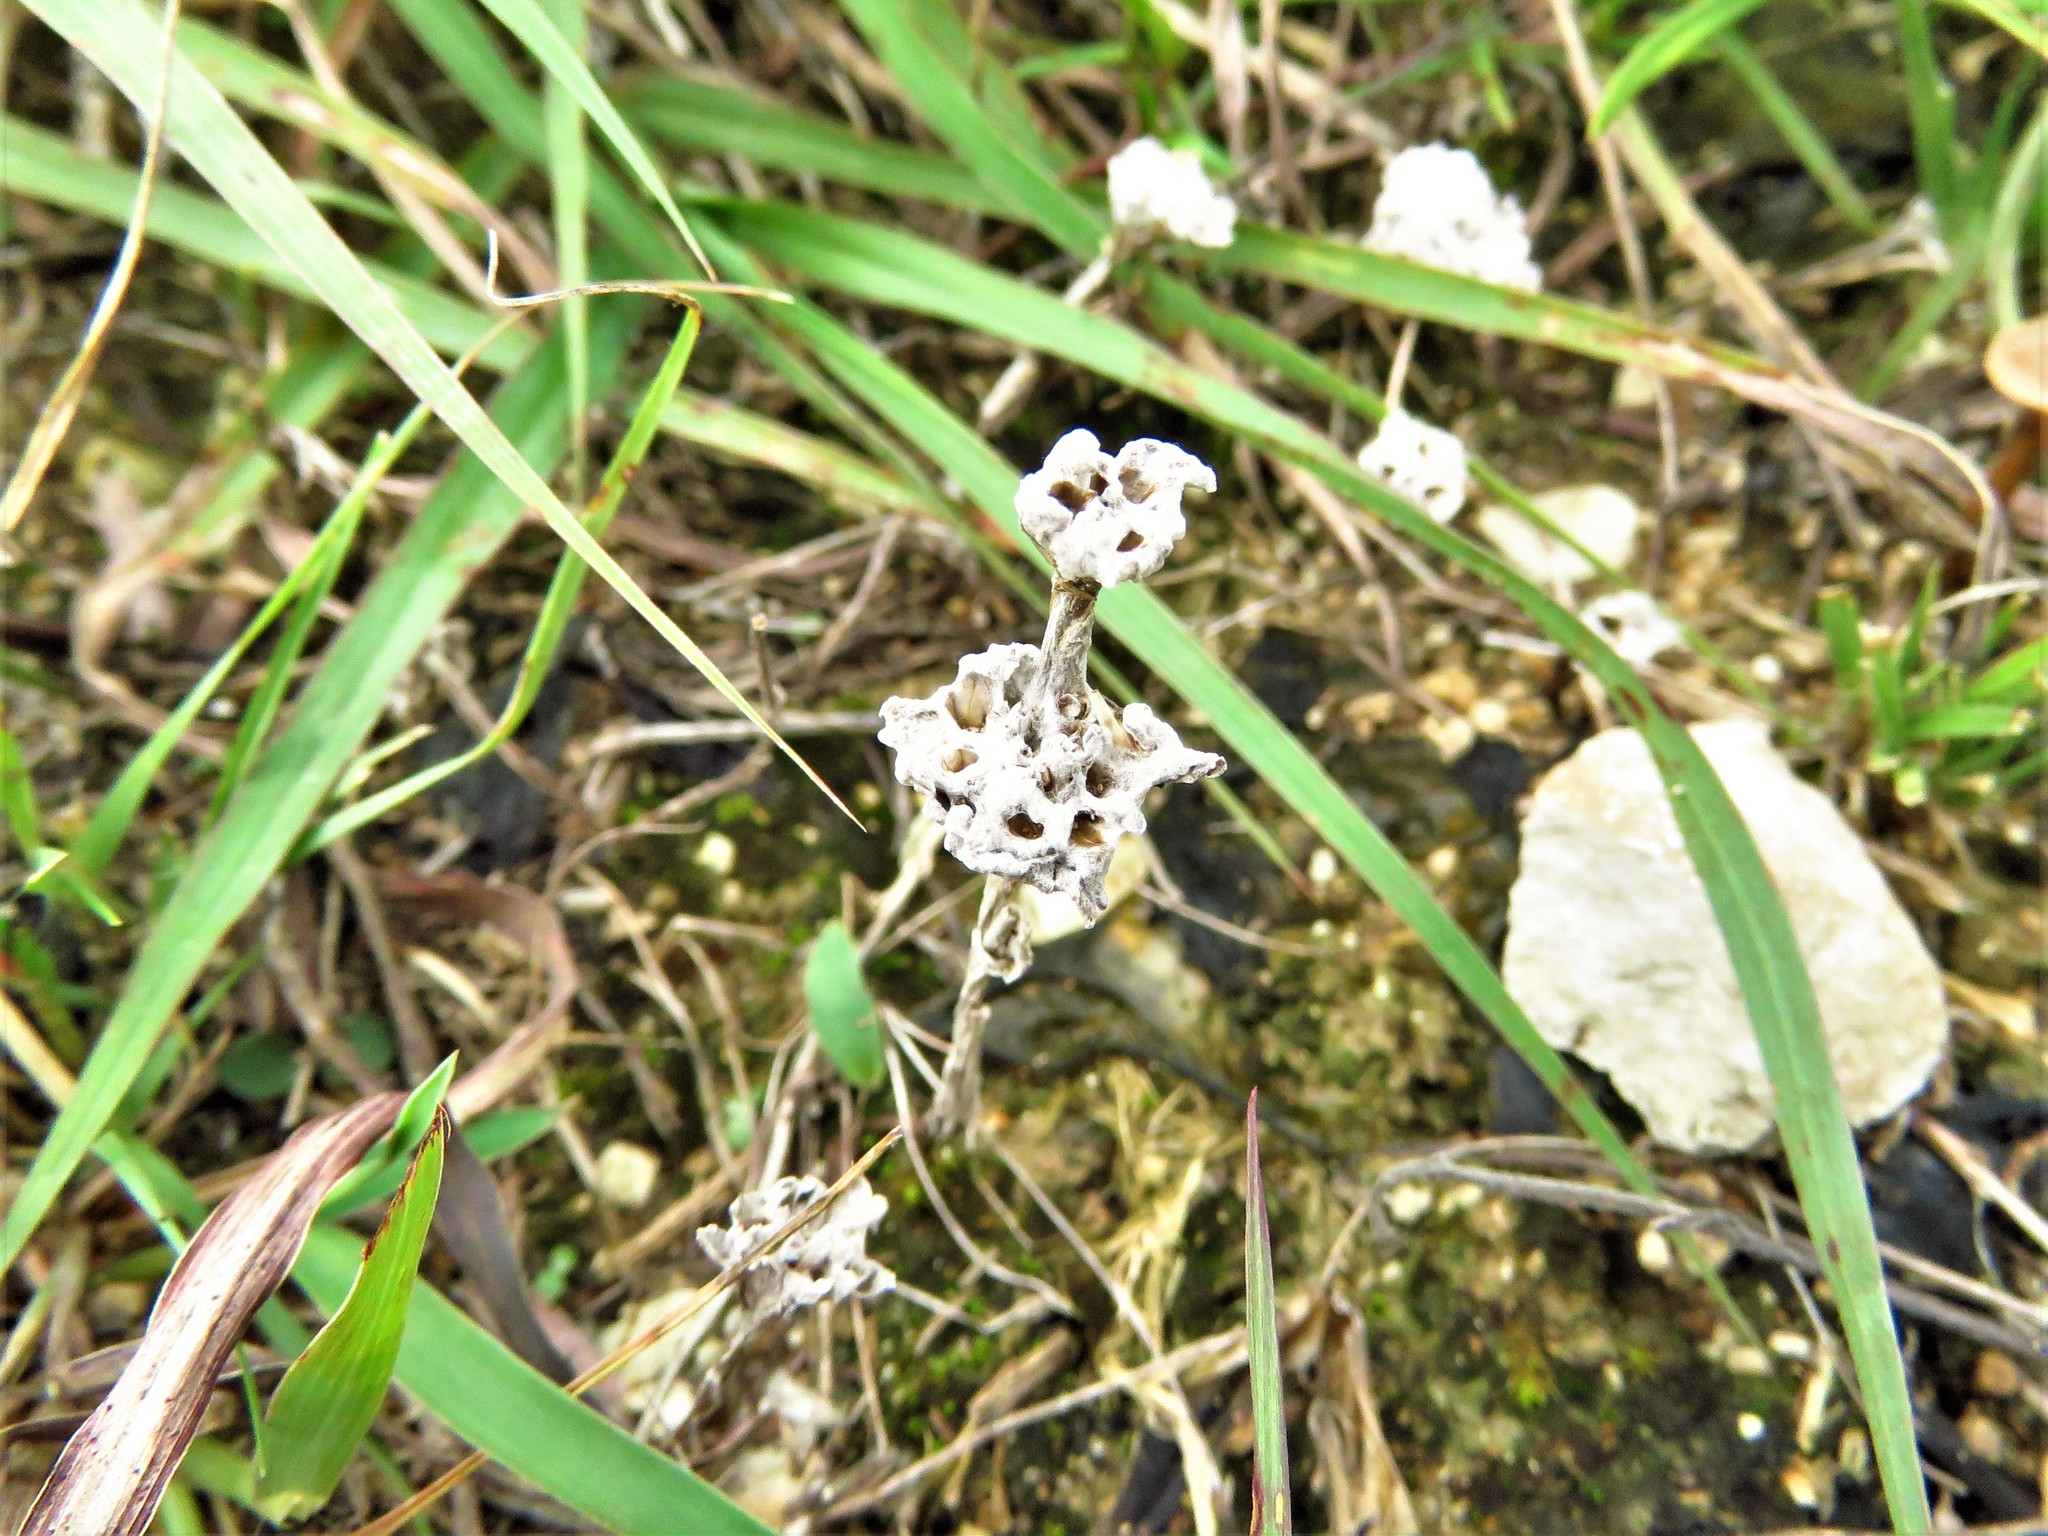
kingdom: Plantae
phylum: Tracheophyta
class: Magnoliopsida
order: Asterales
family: Asteraceae
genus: Diaperia
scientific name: Diaperia prolifera
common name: Big-head rabbit-tobacco
